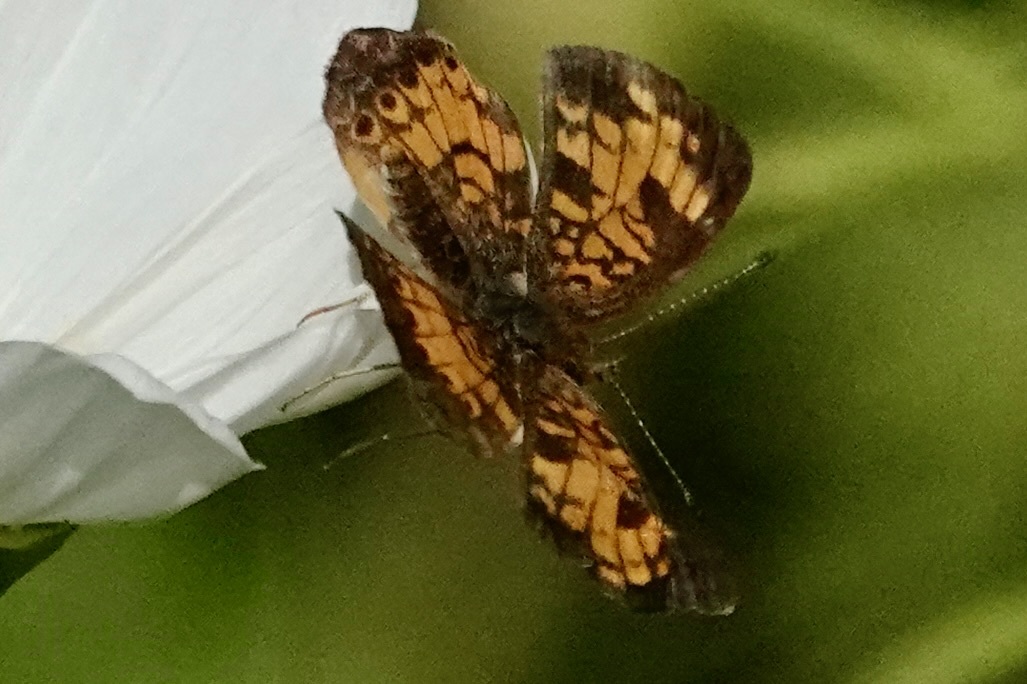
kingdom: Animalia
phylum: Arthropoda
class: Insecta
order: Lepidoptera
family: Nymphalidae
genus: Phyciodes
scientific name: Phyciodes tharos
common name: Pearl crescent
